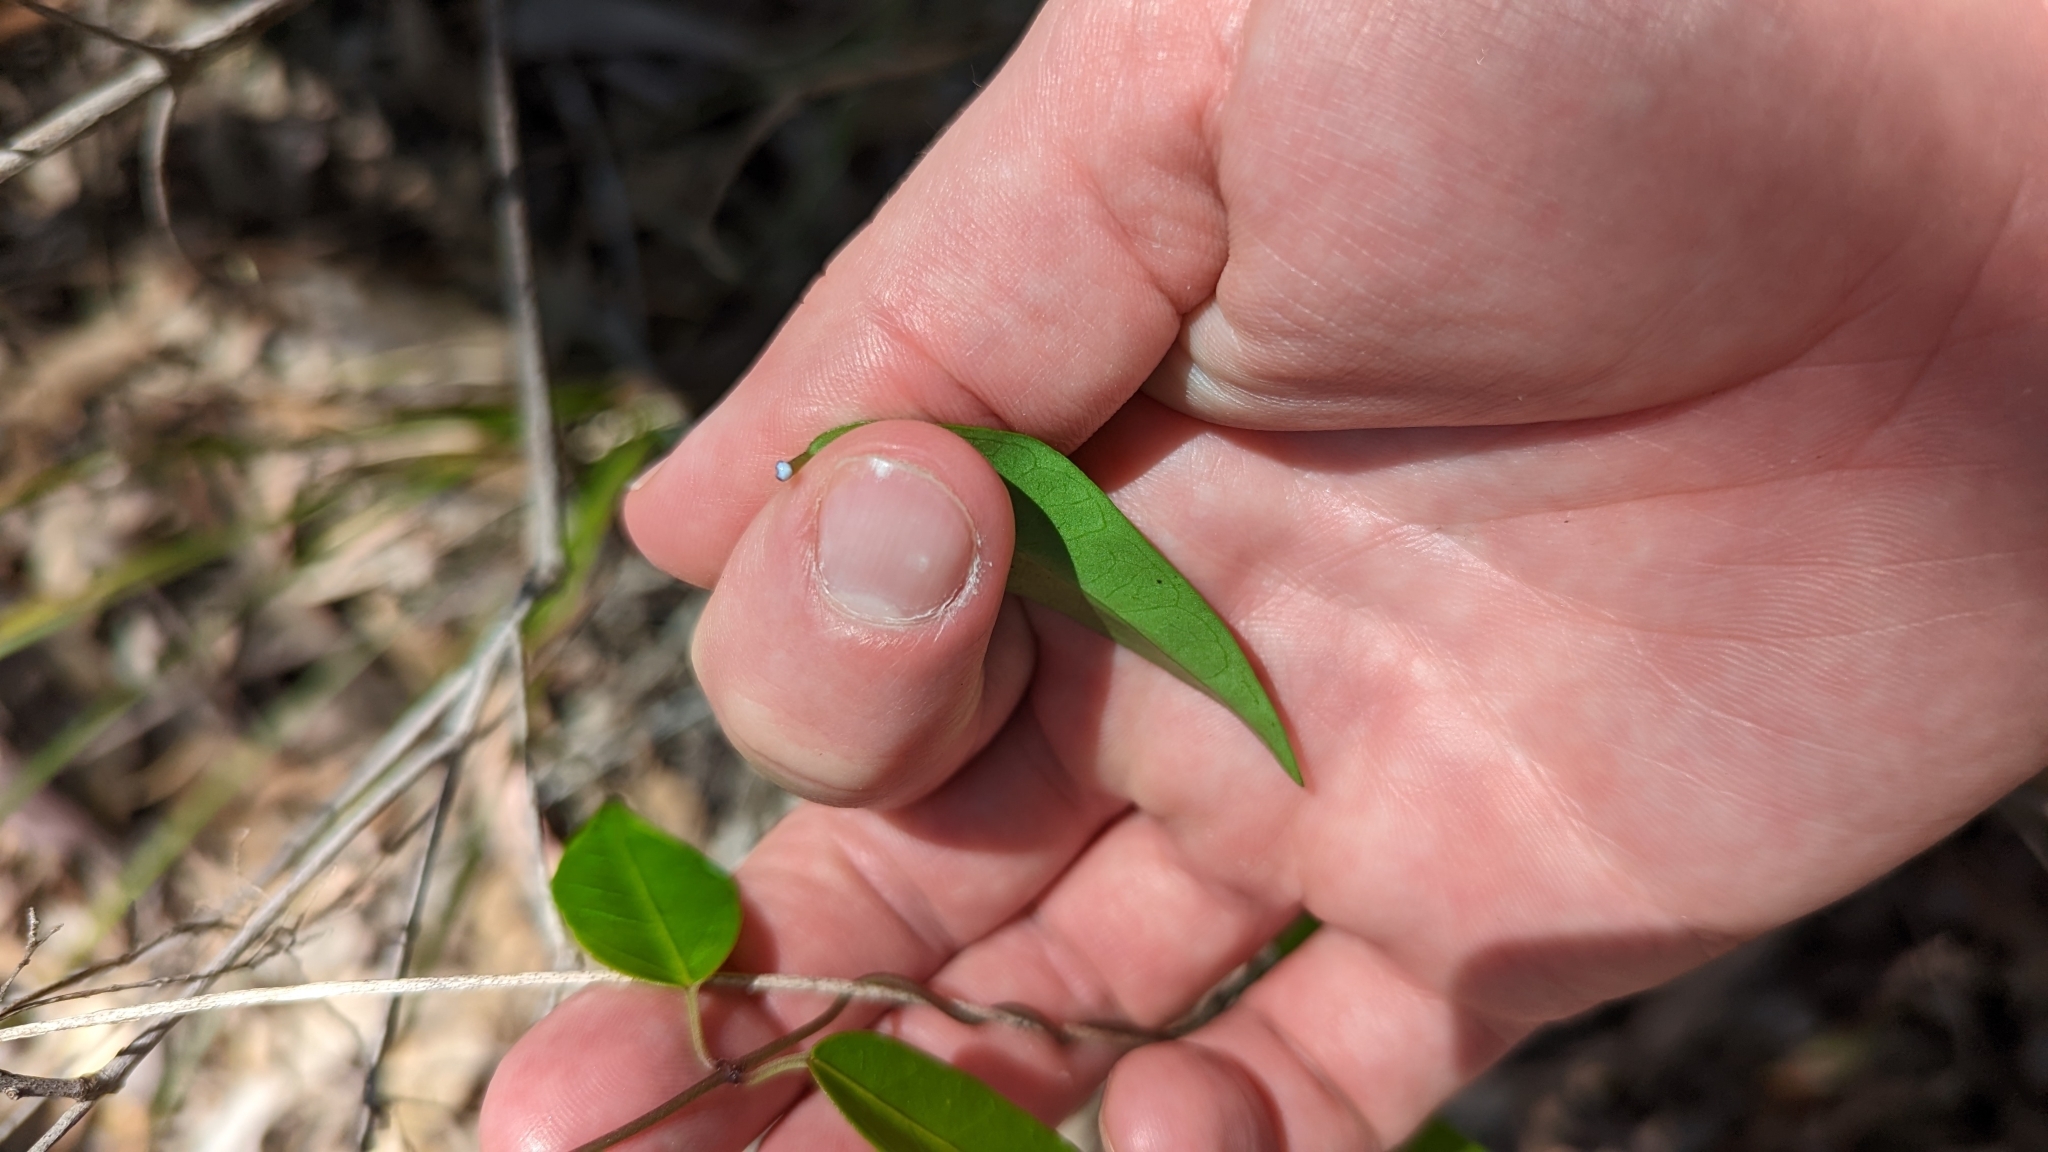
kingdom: Plantae
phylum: Tracheophyta
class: Magnoliopsida
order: Gentianales
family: Apocynaceae
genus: Secamone
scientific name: Secamone elliptica
